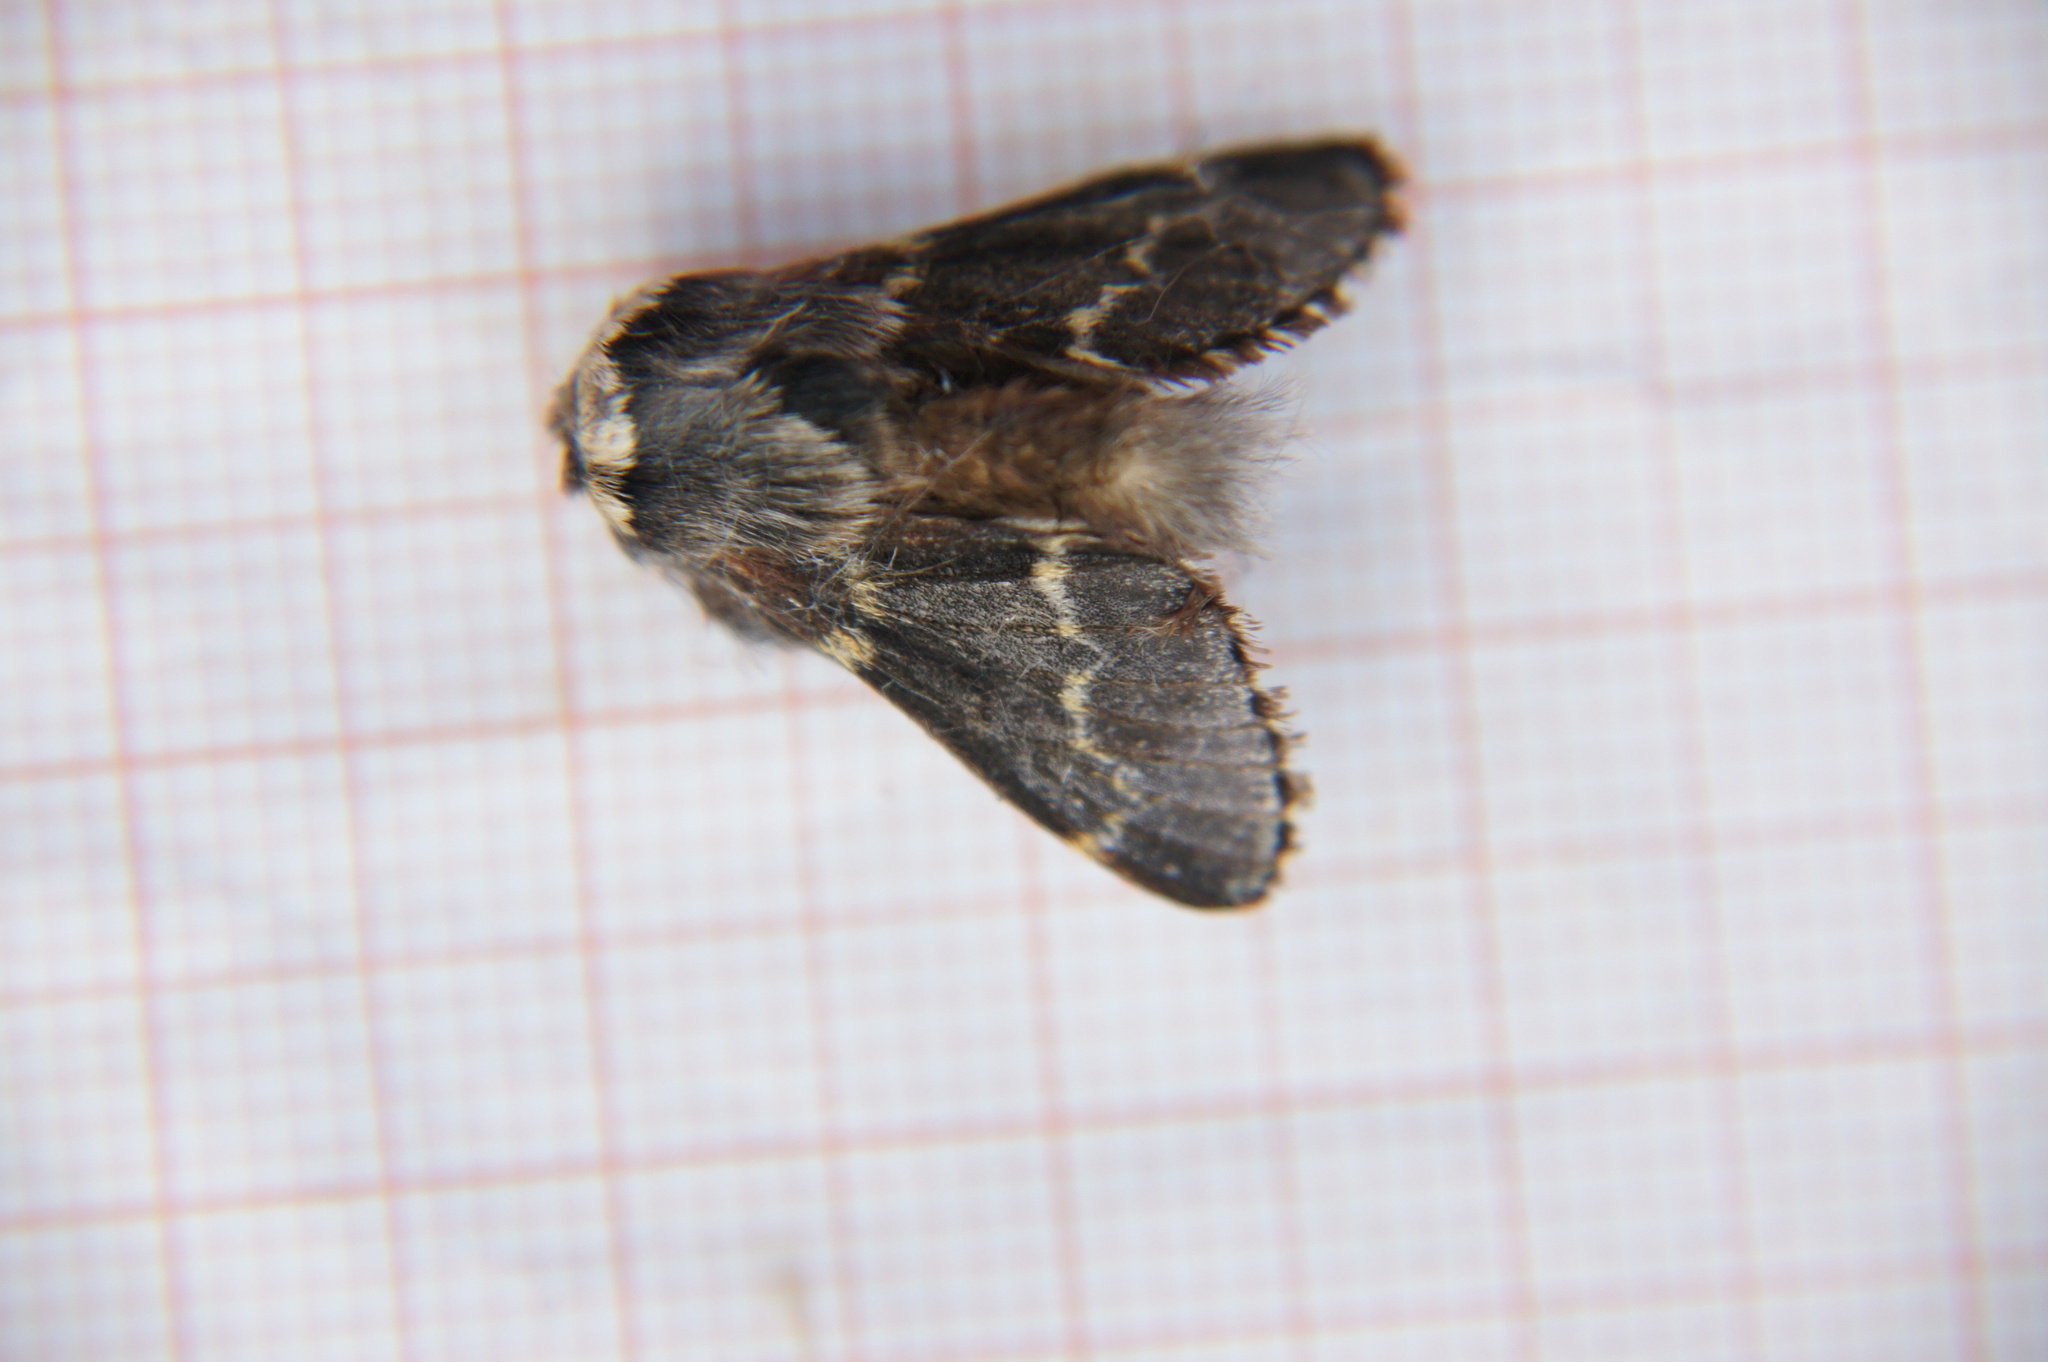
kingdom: Animalia
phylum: Arthropoda
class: Insecta
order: Lepidoptera
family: Lasiocampidae
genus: Poecilocampa
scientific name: Poecilocampa populi
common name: December moth
